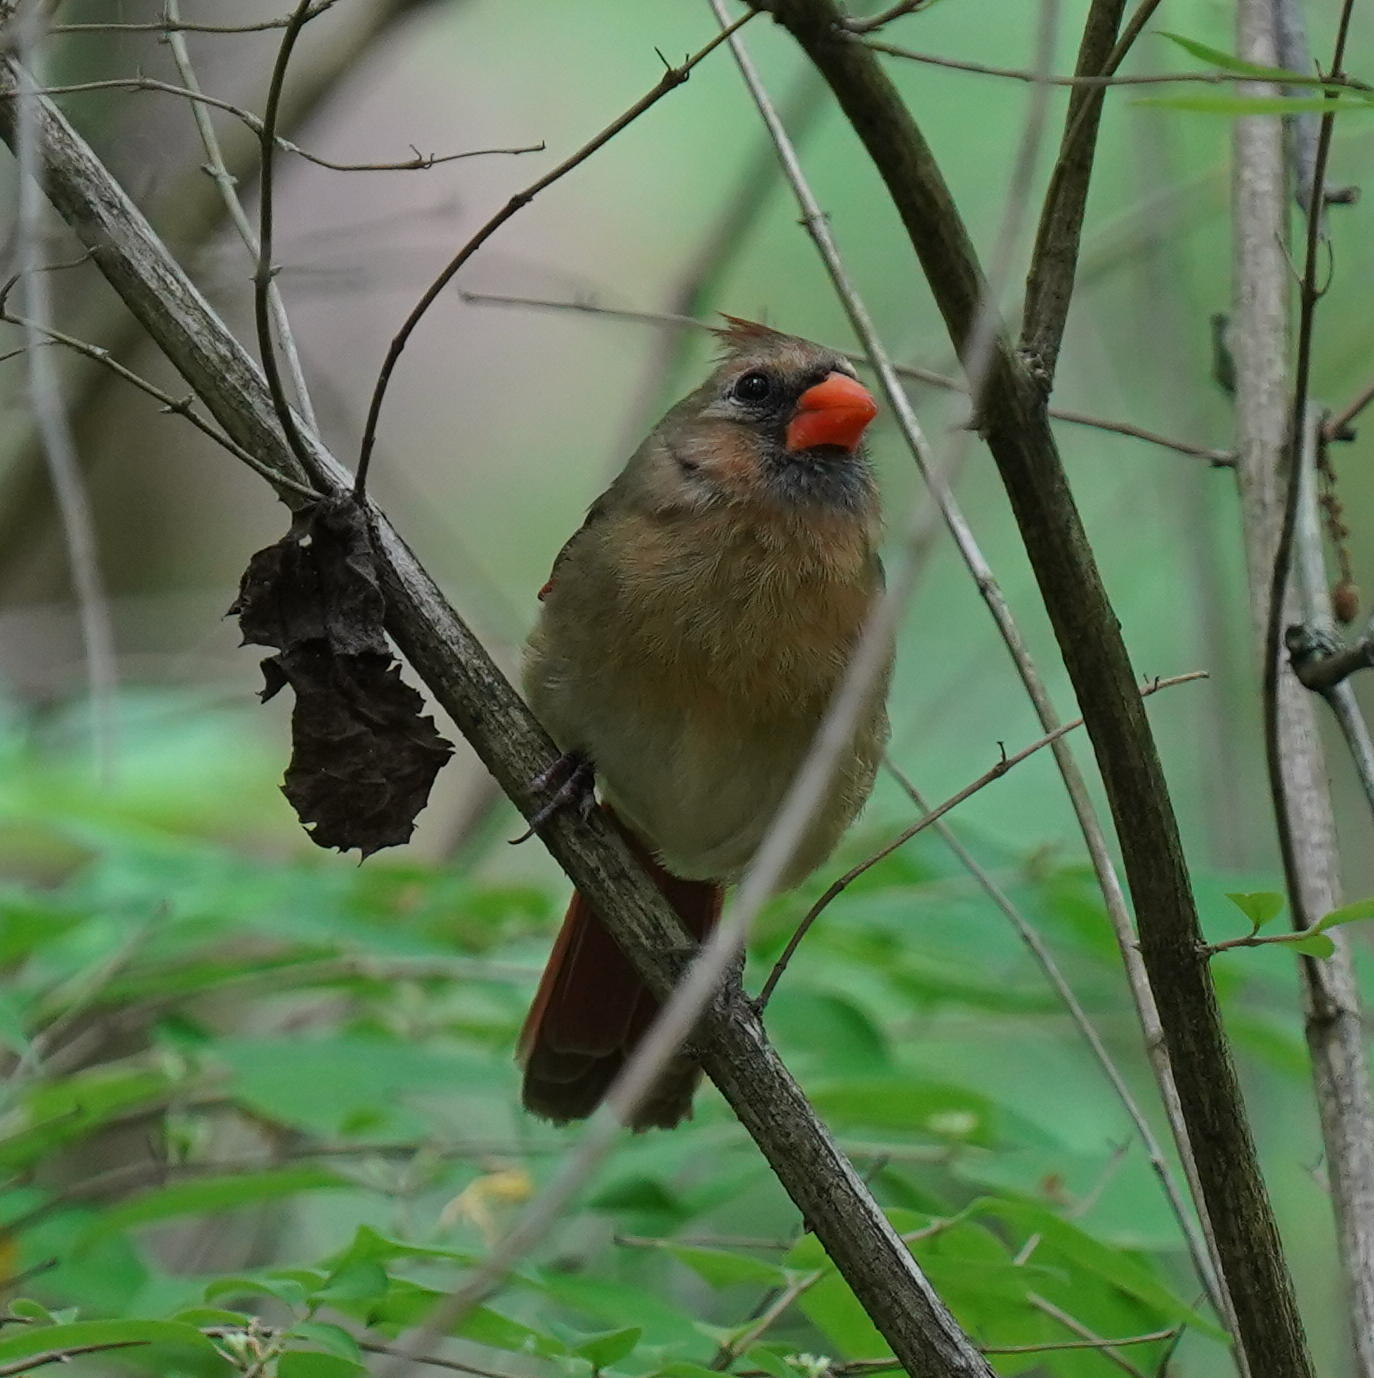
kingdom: Animalia
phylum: Chordata
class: Aves
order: Passeriformes
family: Cardinalidae
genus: Cardinalis
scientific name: Cardinalis cardinalis
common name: Northern cardinal
